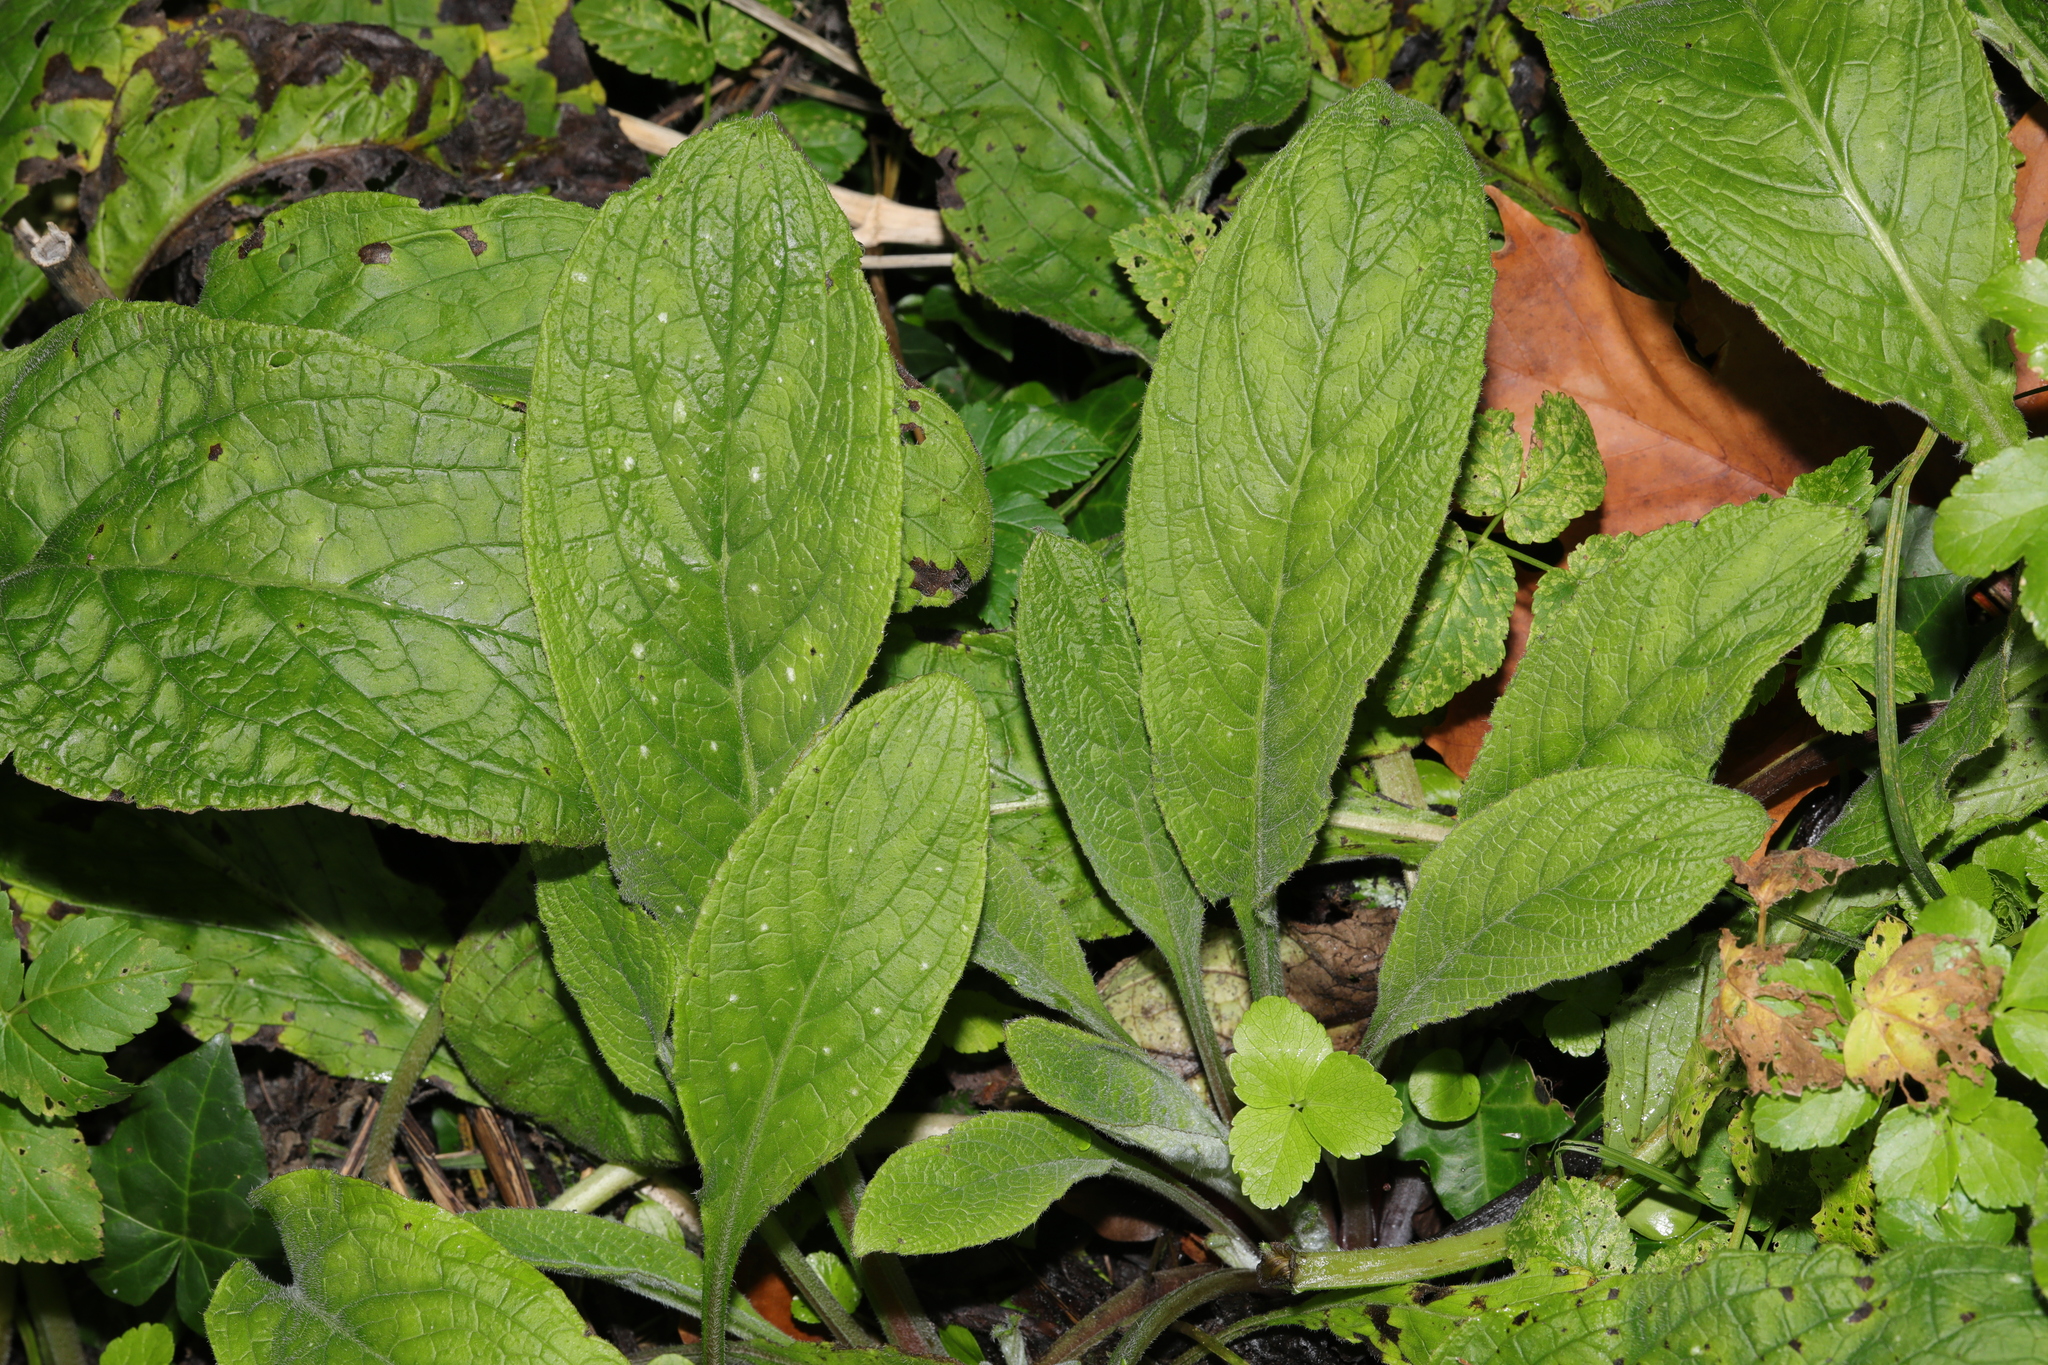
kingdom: Plantae
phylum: Tracheophyta
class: Magnoliopsida
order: Boraginales
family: Boraginaceae
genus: Pentaglottis
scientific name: Pentaglottis sempervirens
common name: Green alkanet
